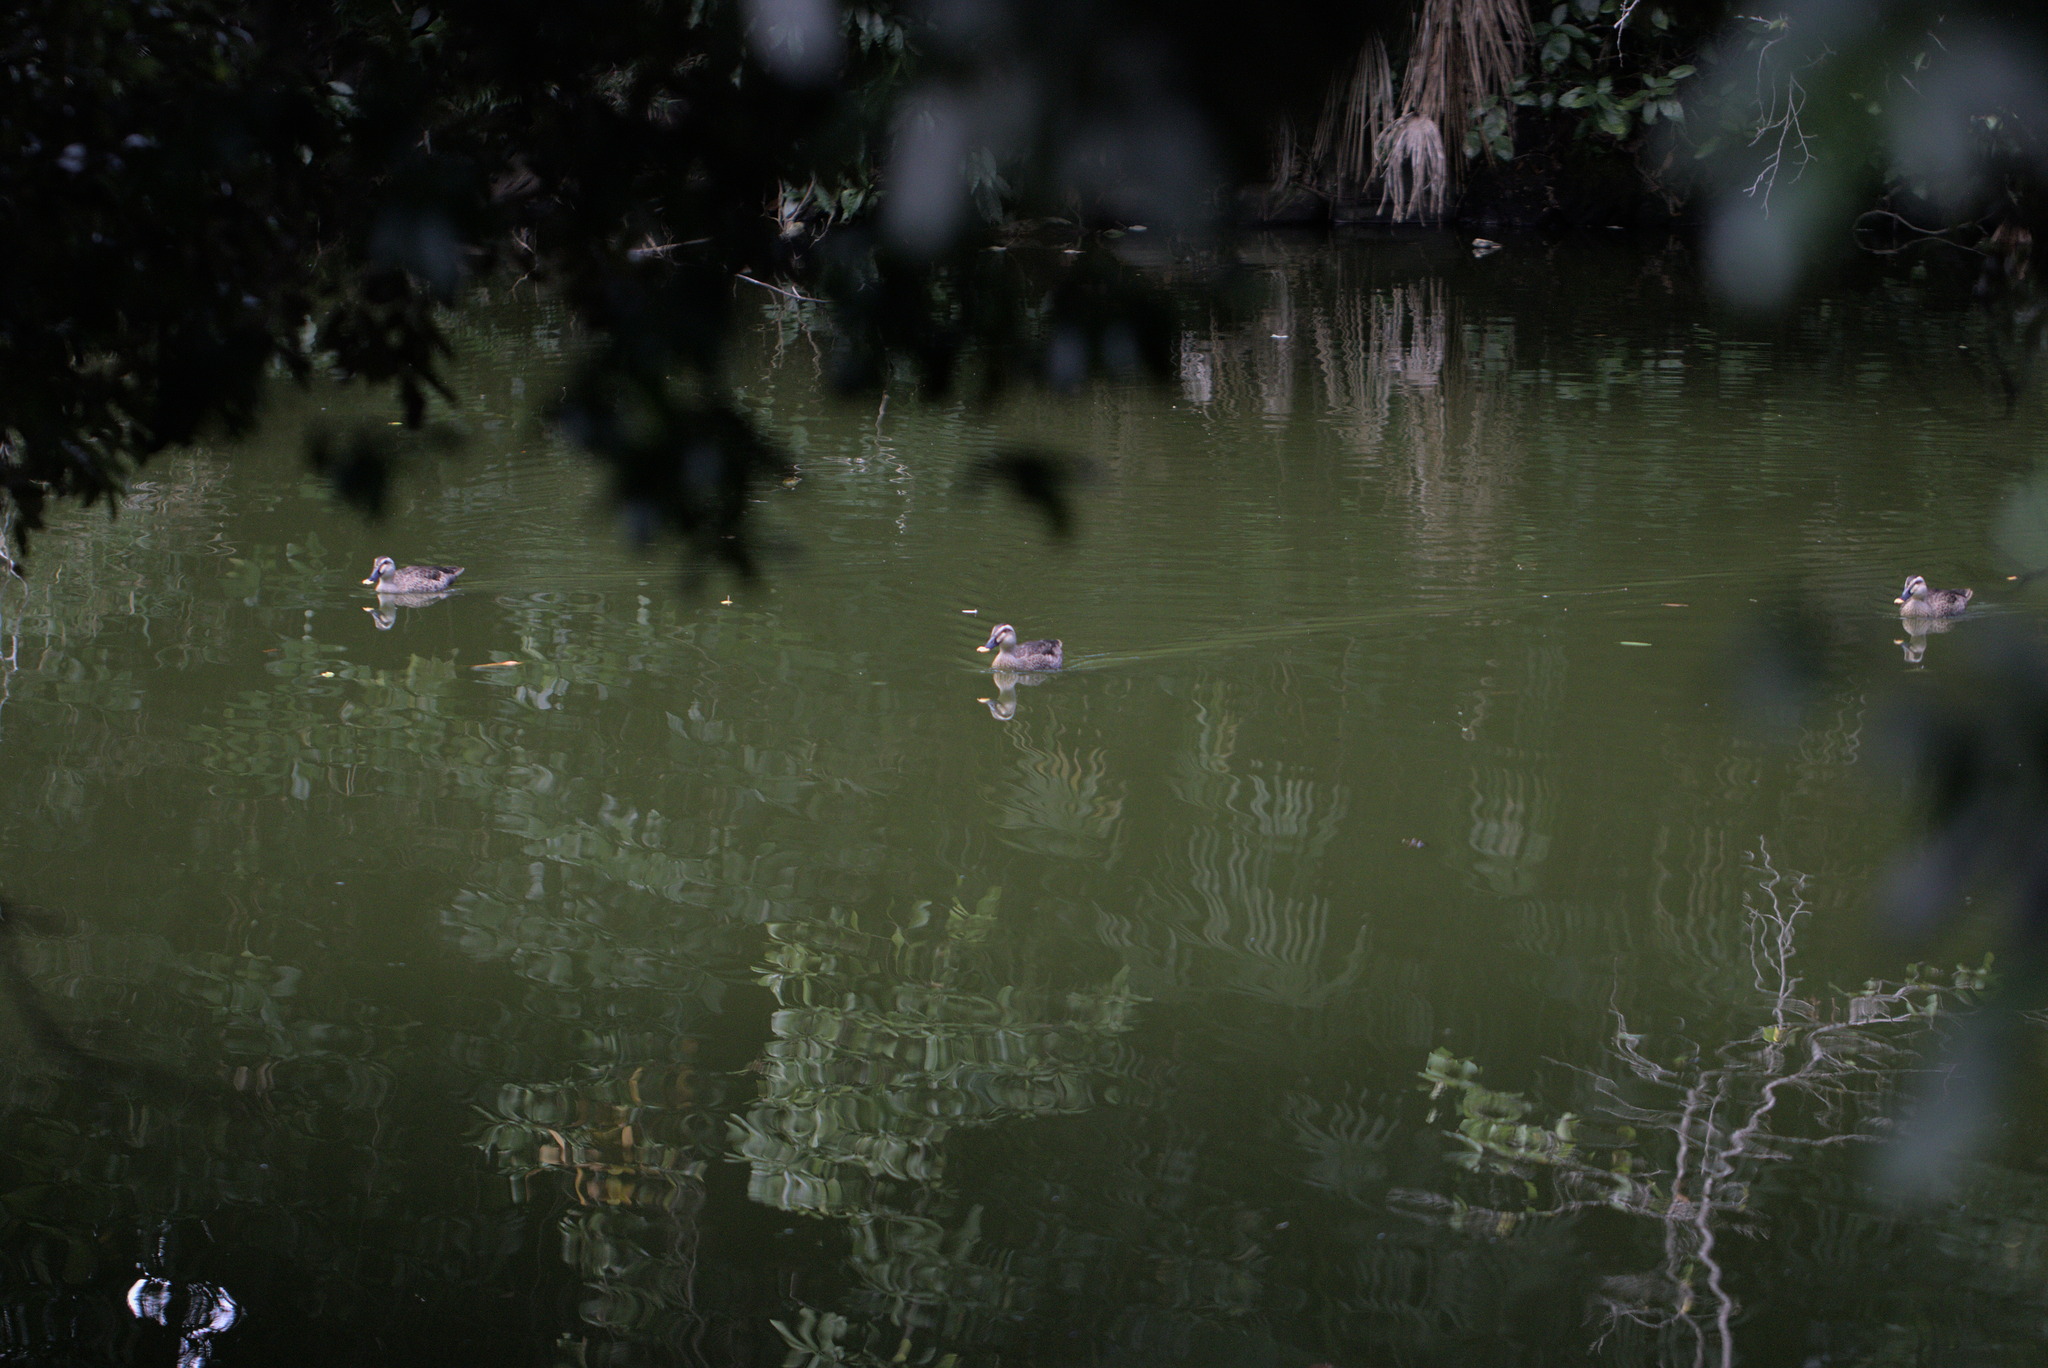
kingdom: Animalia
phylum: Chordata
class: Aves
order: Anseriformes
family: Anatidae
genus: Anas
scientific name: Anas zonorhyncha
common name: Eastern spot-billed duck
